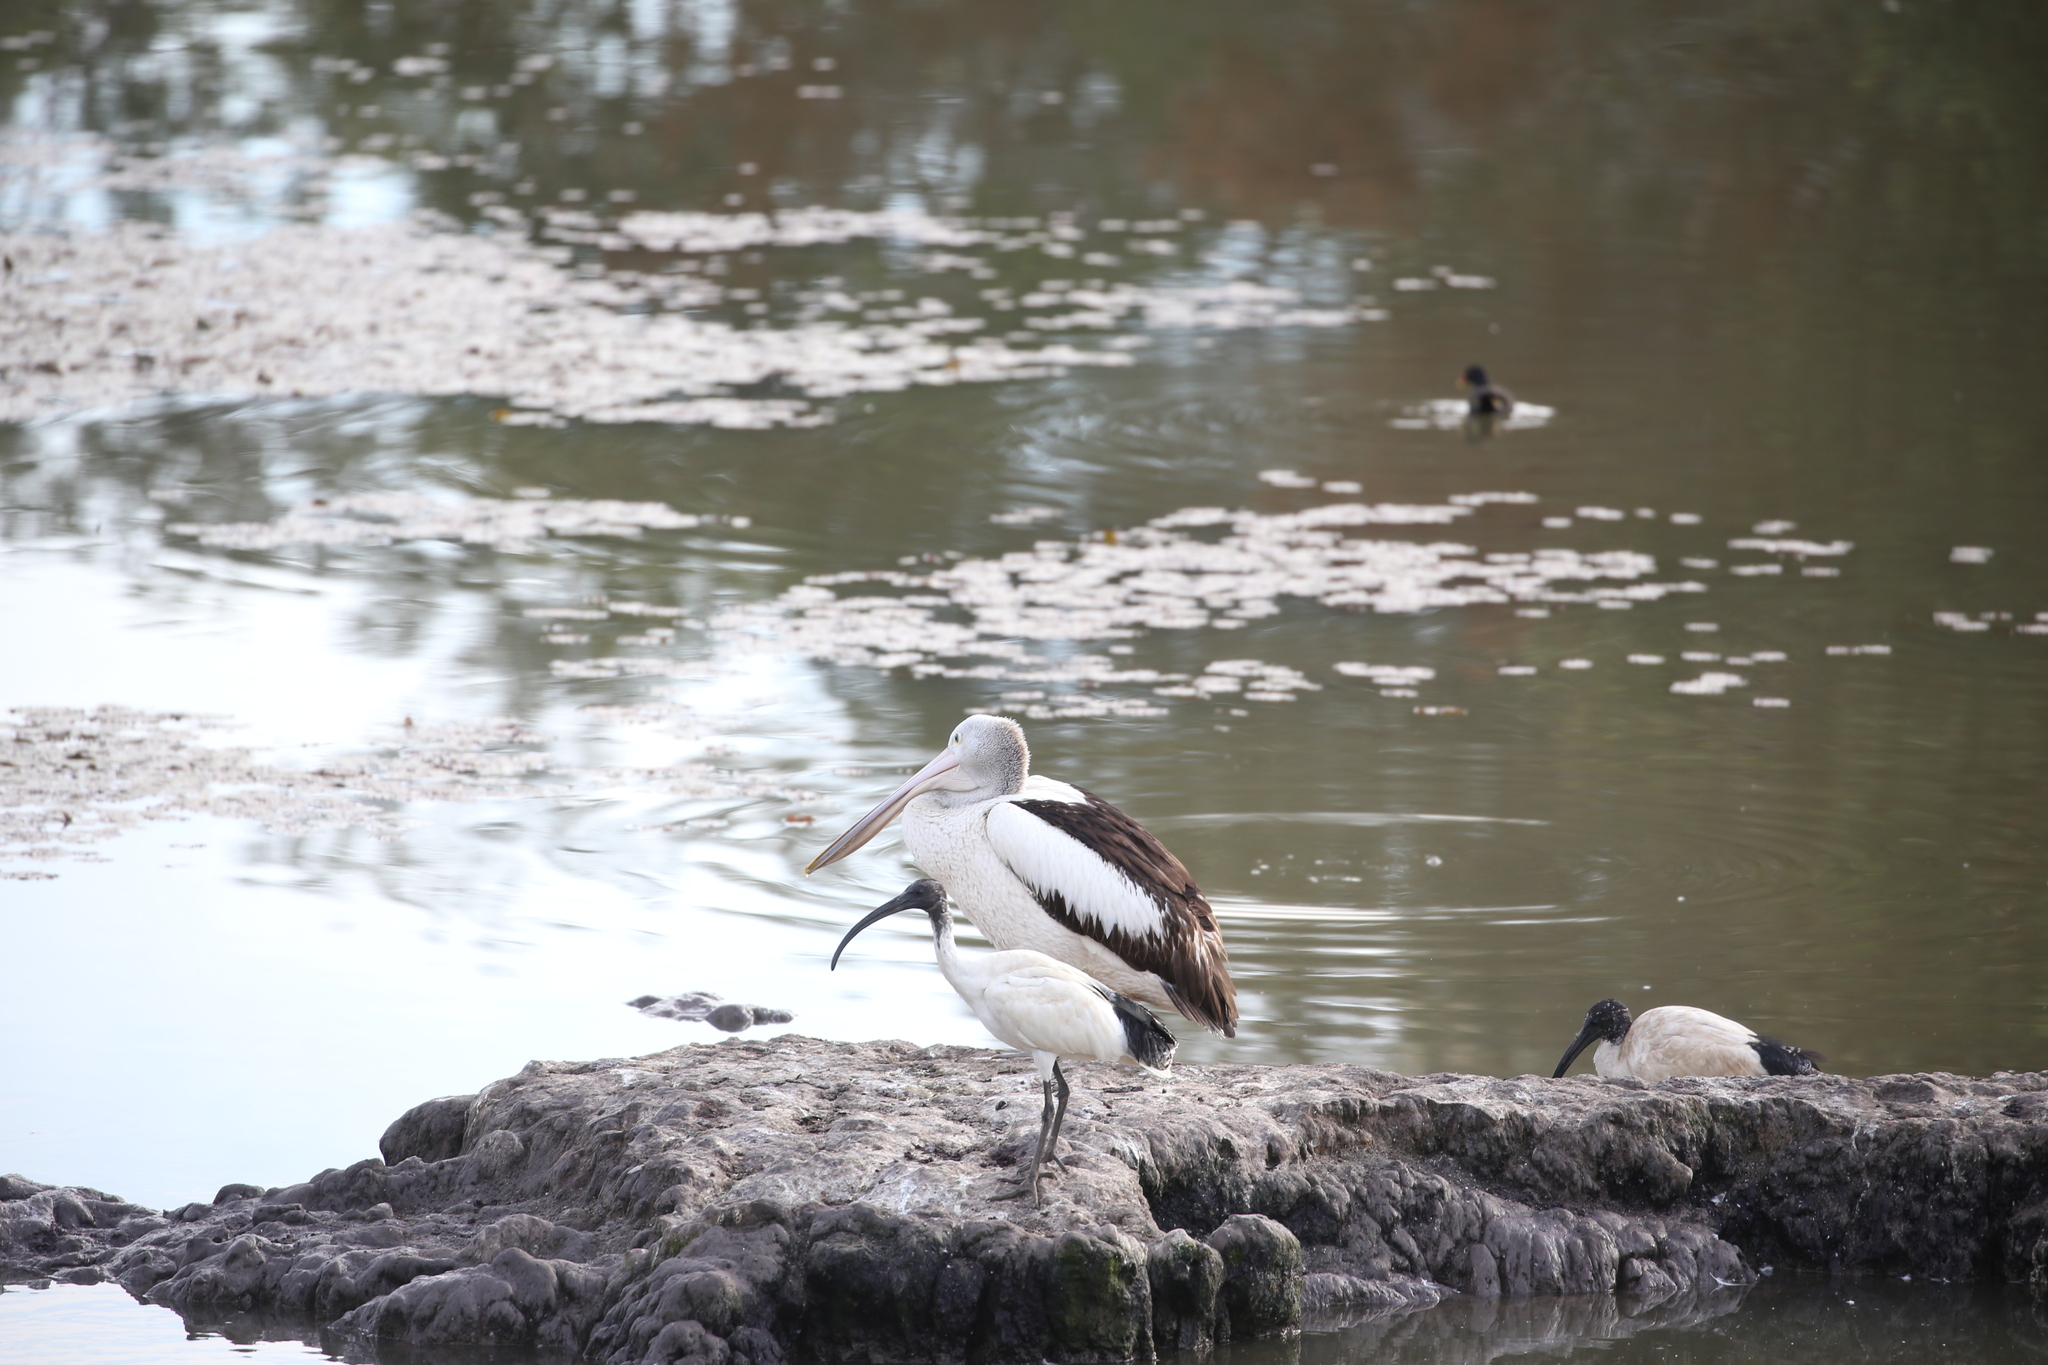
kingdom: Animalia
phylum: Chordata
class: Aves
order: Pelecaniformes
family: Pelecanidae
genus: Pelecanus
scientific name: Pelecanus conspicillatus
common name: Australian pelican
